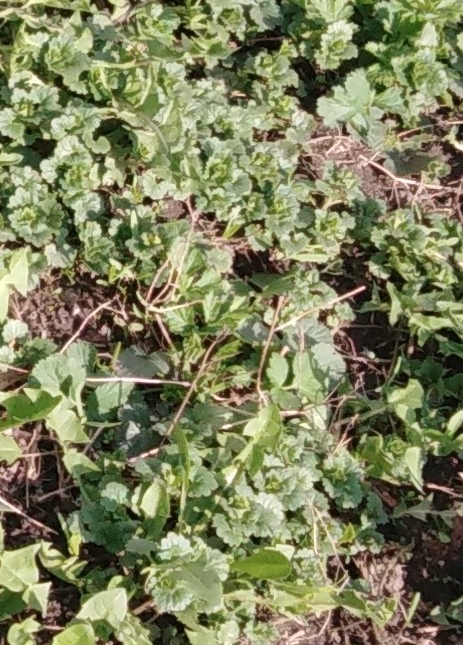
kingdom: Plantae
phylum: Tracheophyta
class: Magnoliopsida
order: Lamiales
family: Lamiaceae
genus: Glechoma
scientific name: Glechoma hederacea
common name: Ground ivy
